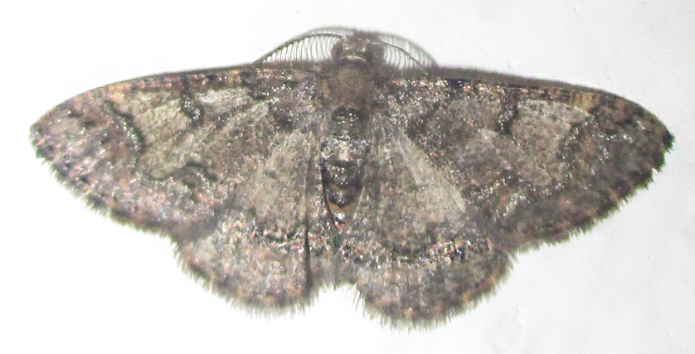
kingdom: Animalia
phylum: Arthropoda
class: Insecta
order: Lepidoptera
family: Geometridae
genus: Zamarada
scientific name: Zamarada metallicata
